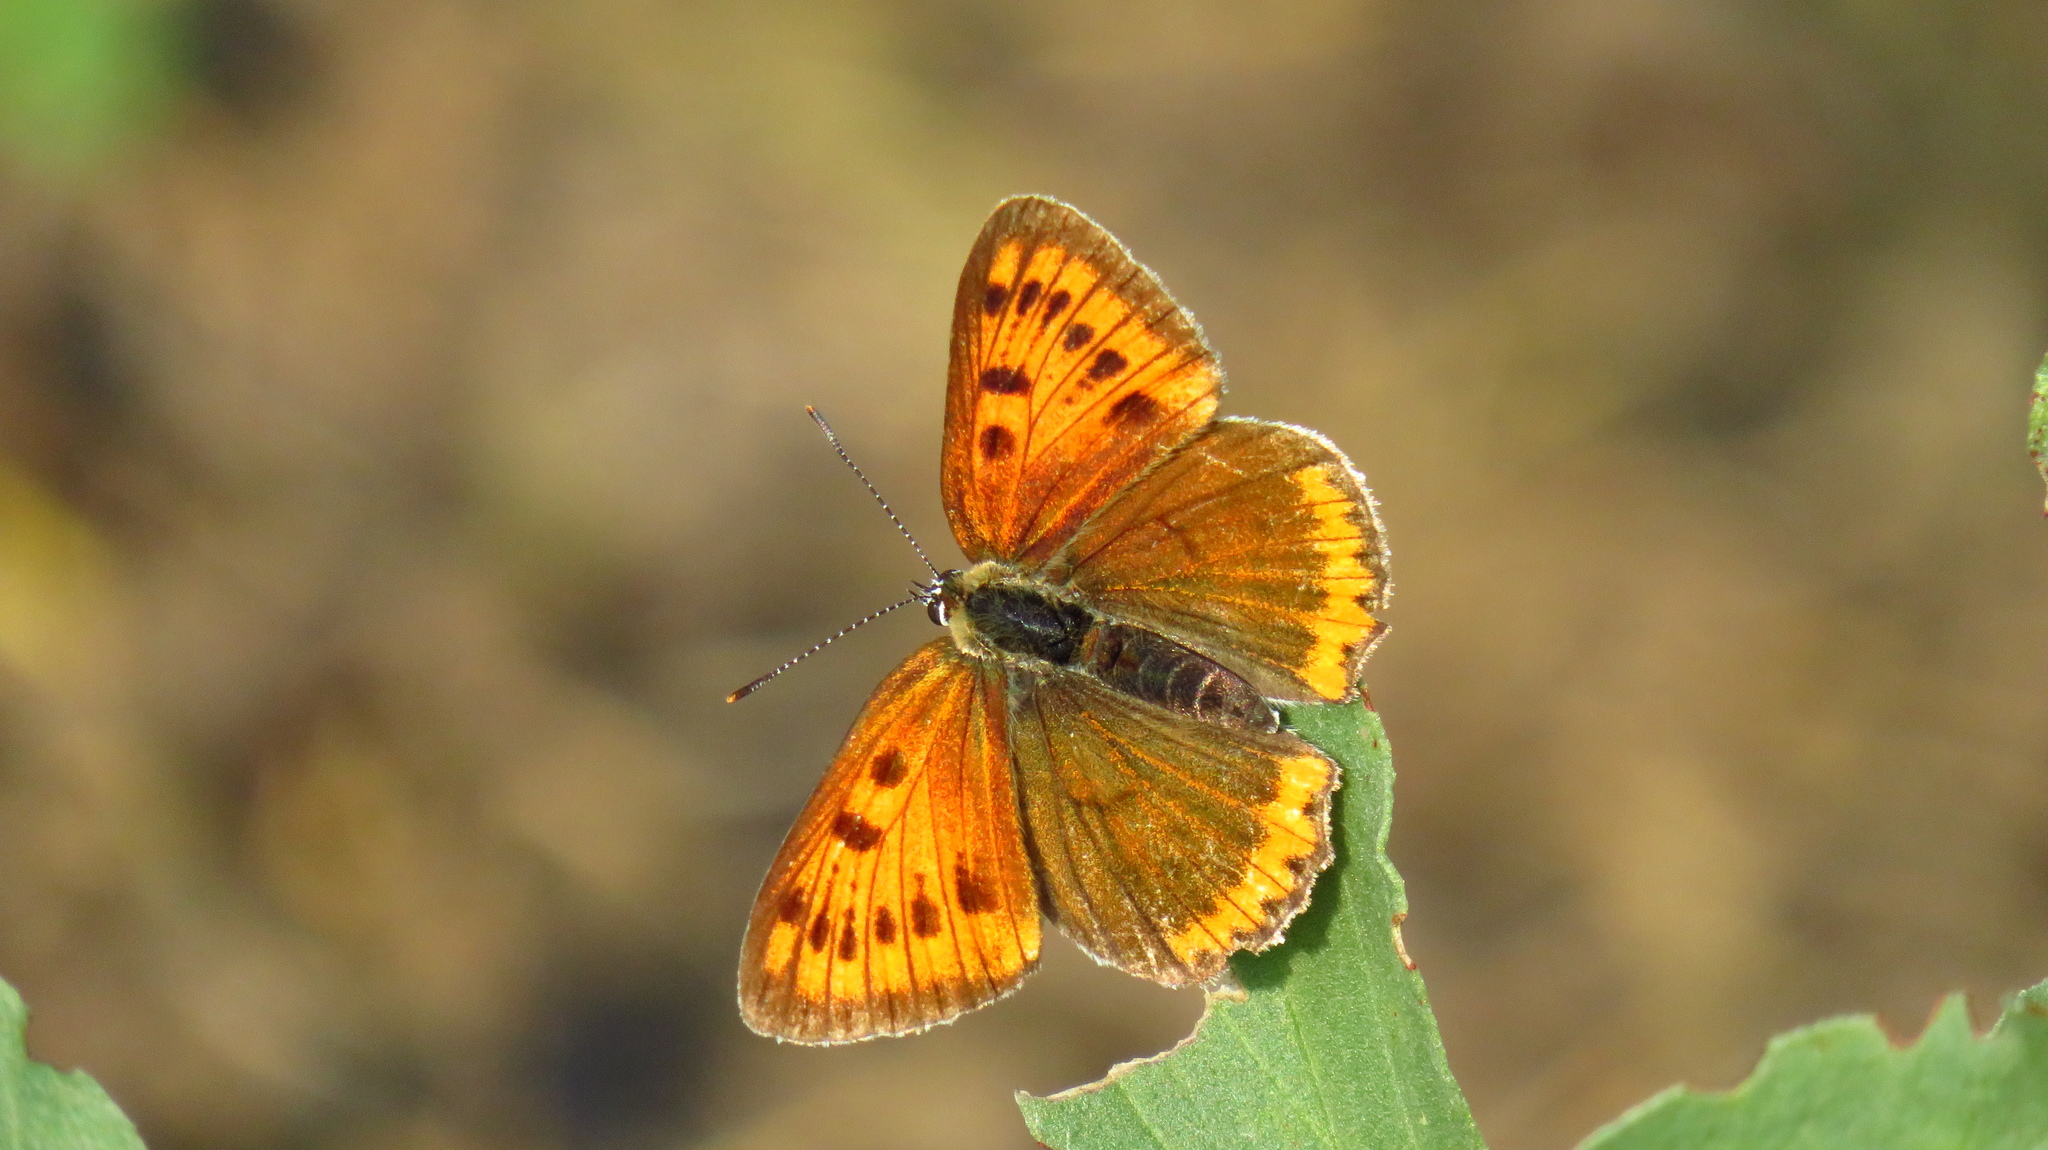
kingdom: Animalia
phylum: Arthropoda
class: Insecta
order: Lepidoptera
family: Lycaenidae
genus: Lycaena
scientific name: Lycaena dispar
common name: Large copper
